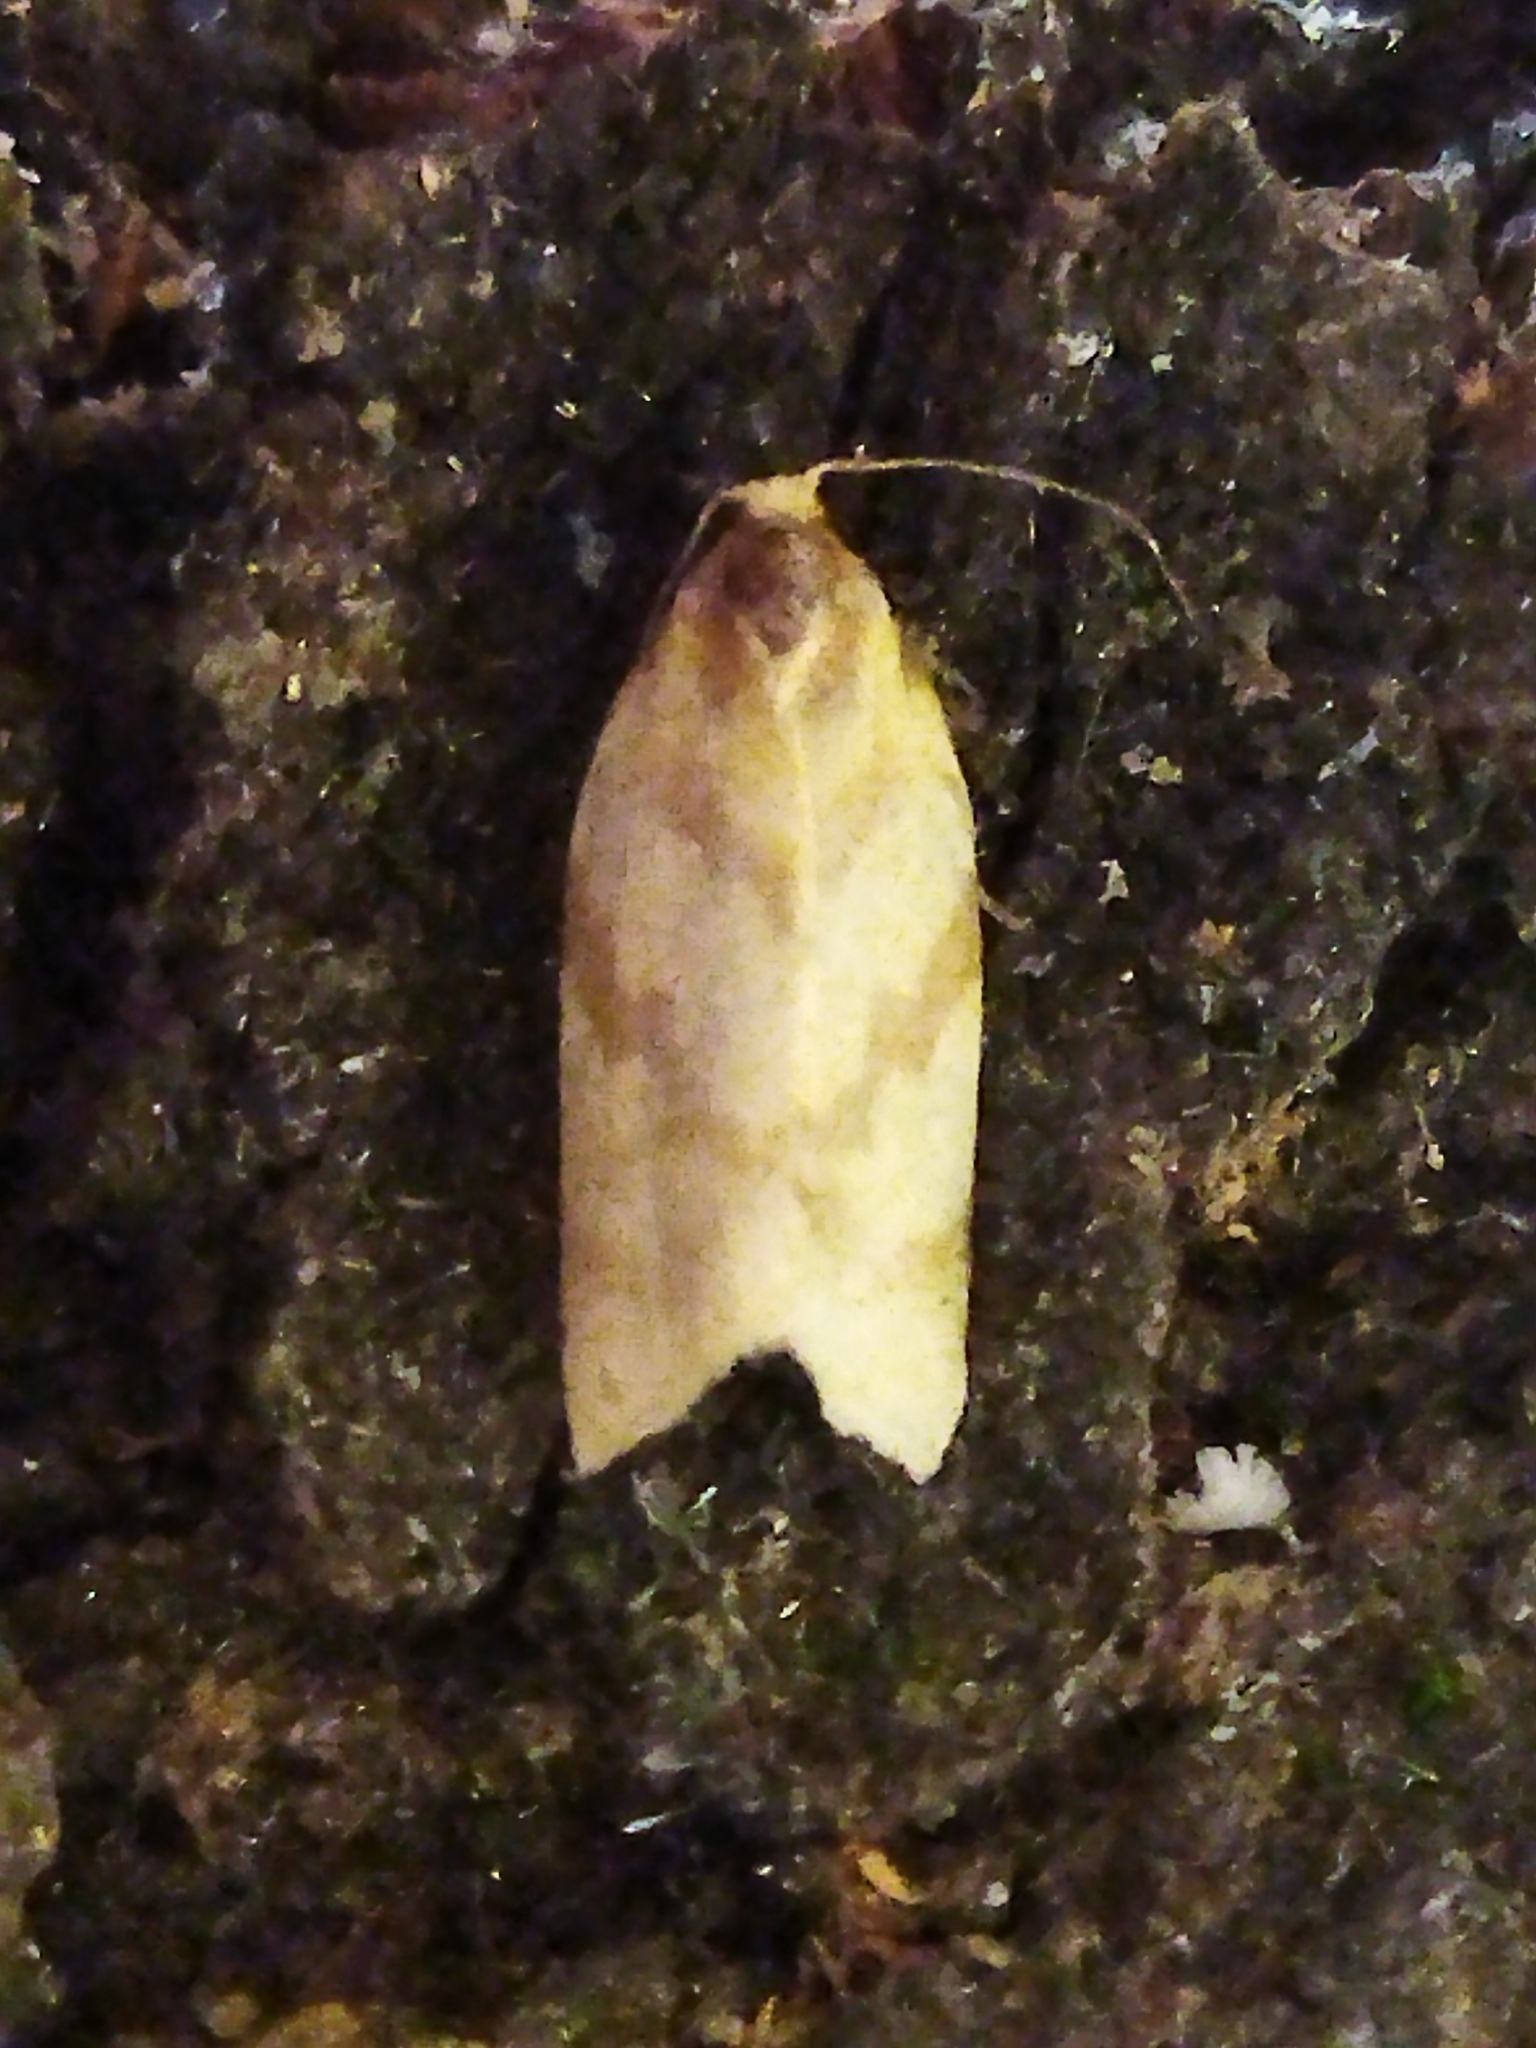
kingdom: Animalia
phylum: Arthropoda
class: Insecta
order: Lepidoptera
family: Tortricidae
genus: Clepsis
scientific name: Clepsis pallidana
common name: Sheep's-bit conch
